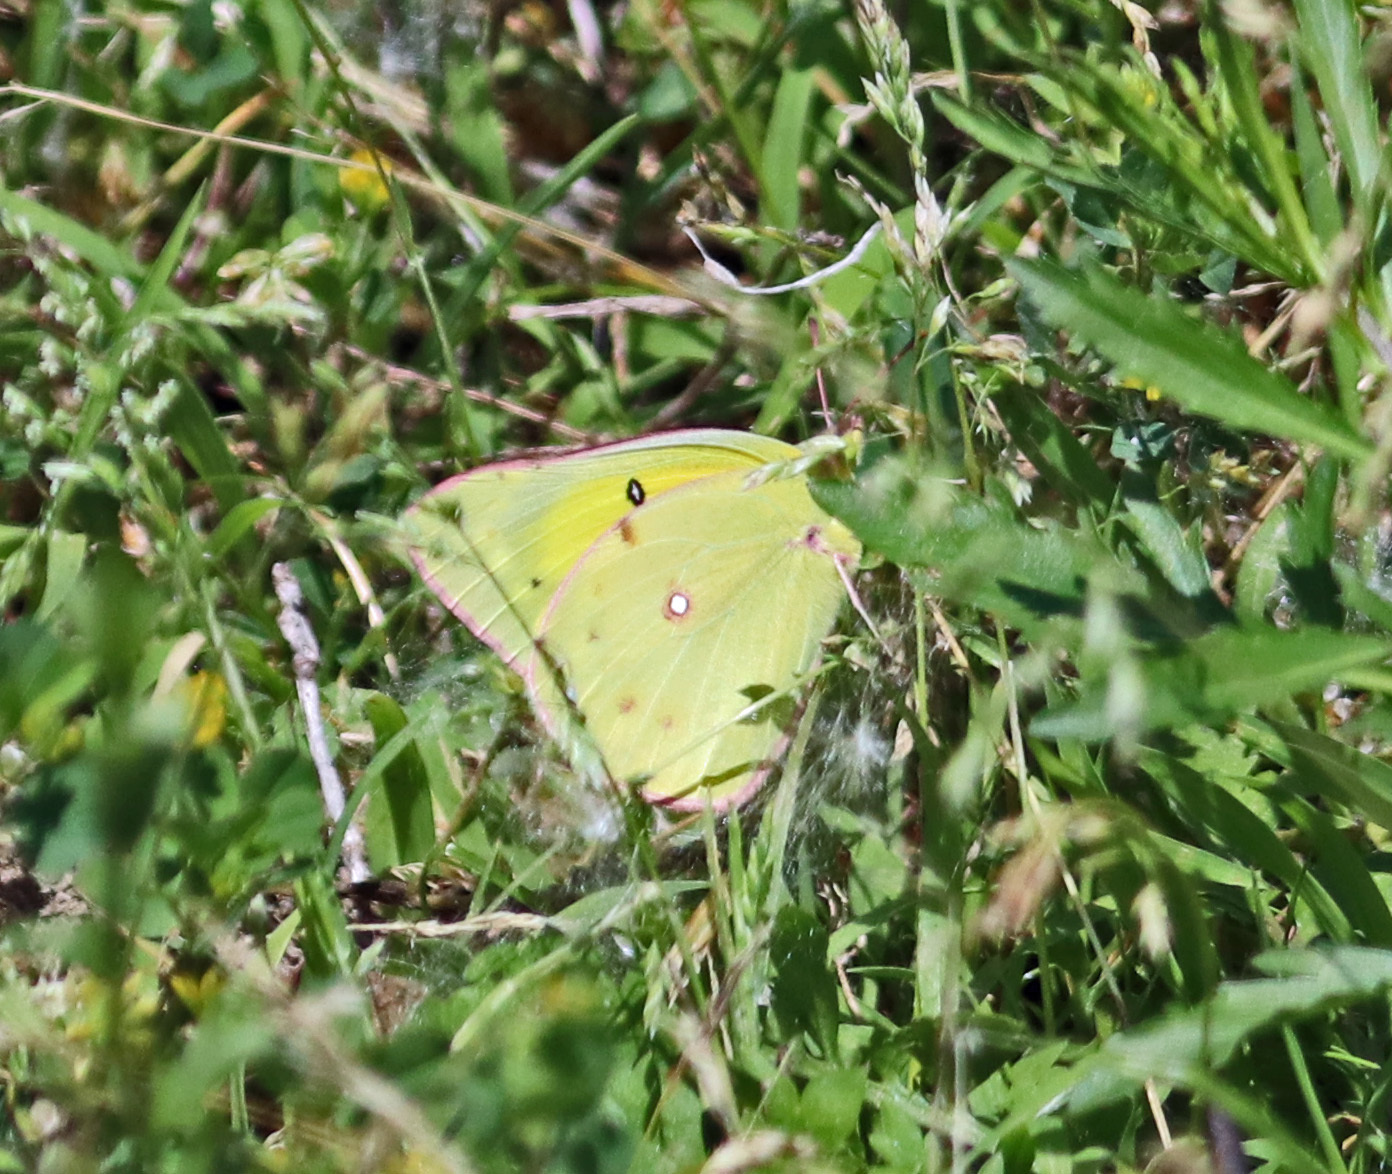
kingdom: Animalia
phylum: Arthropoda
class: Insecta
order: Lepidoptera
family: Pieridae
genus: Colias
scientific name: Colias eurytheme
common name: Alfalfa butterfly
